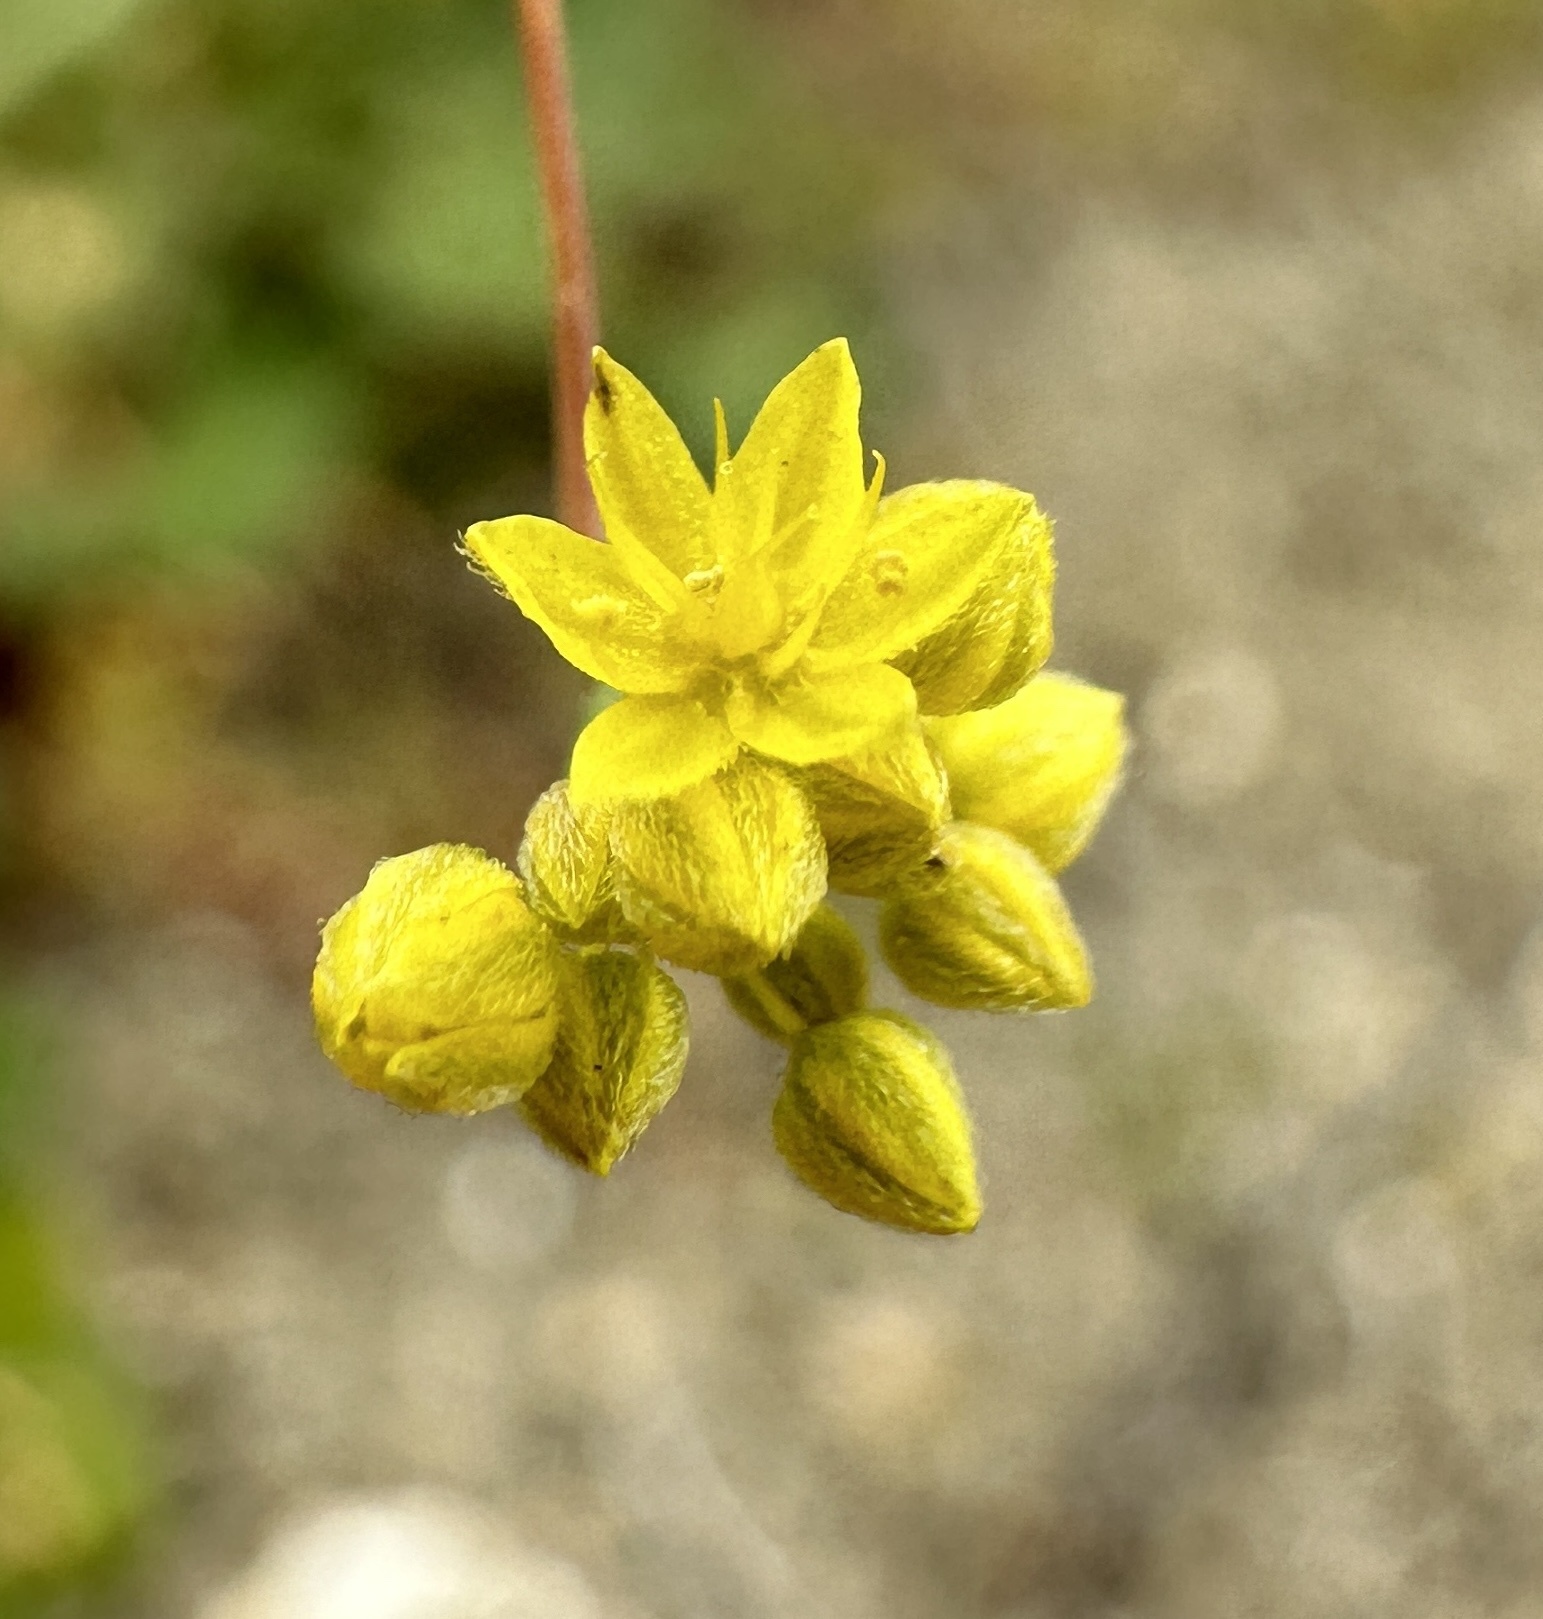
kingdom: Plantae
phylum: Tracheophyta
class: Magnoliopsida
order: Caryophyllales
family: Polygonaceae
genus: Eriogonum
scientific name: Eriogonum clavatum
